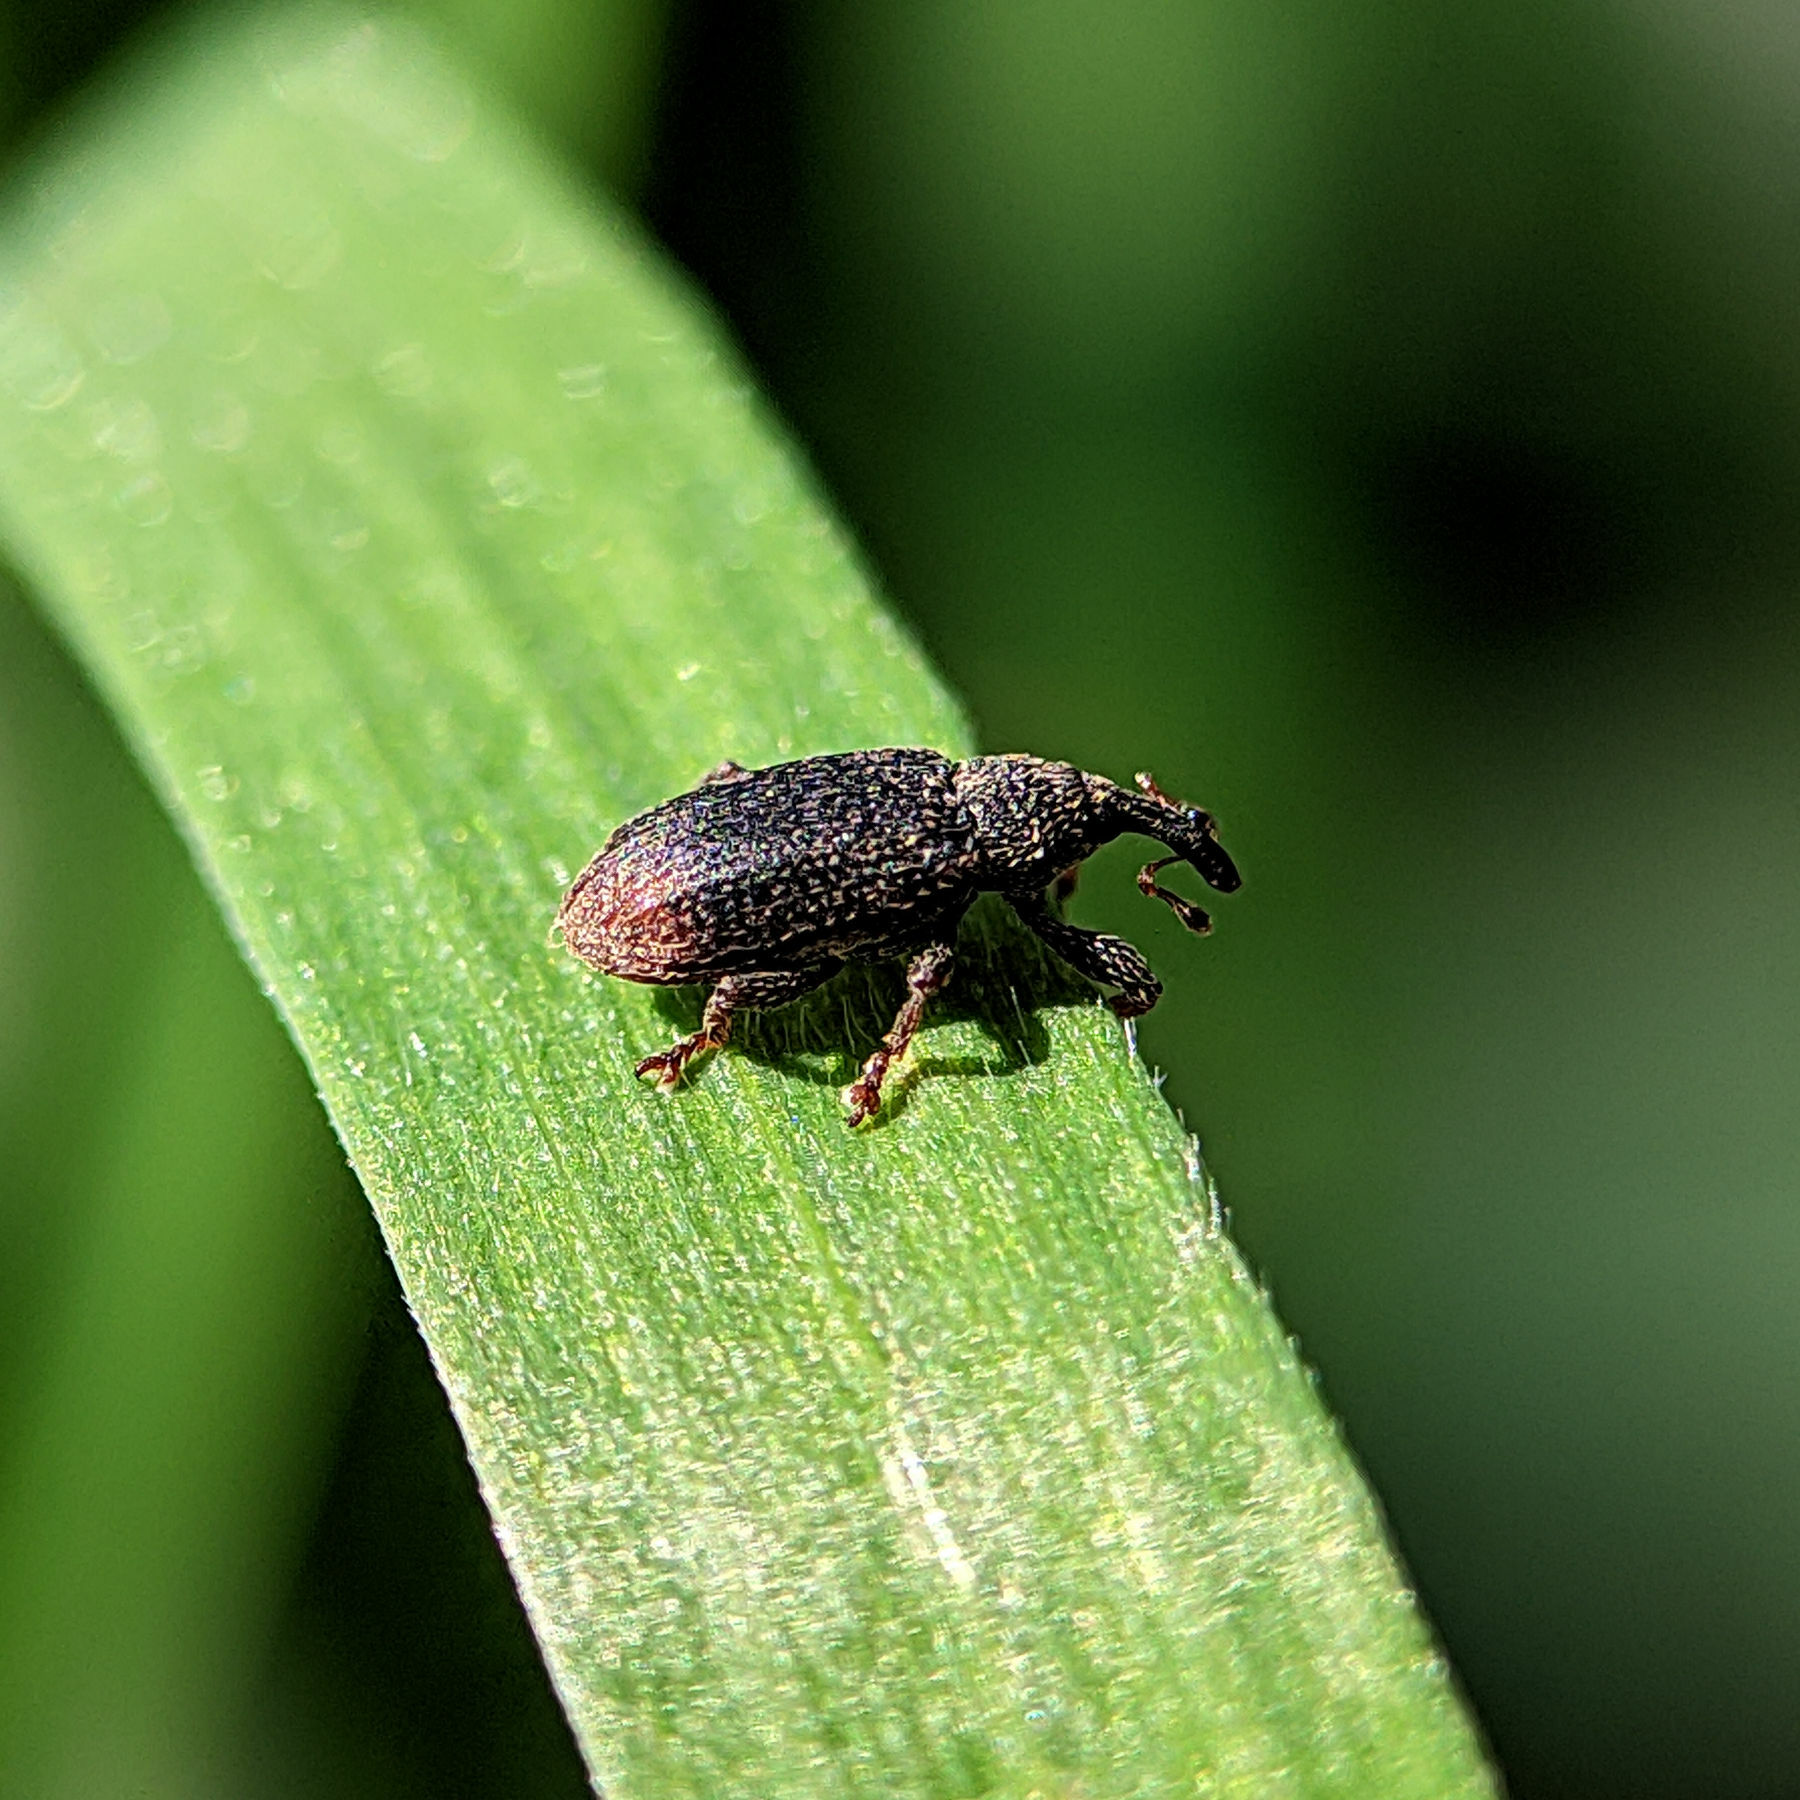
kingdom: Animalia
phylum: Arthropoda
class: Insecta
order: Coleoptera
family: Curculionidae
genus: Bradybatus
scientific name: Bradybatus kellneri
